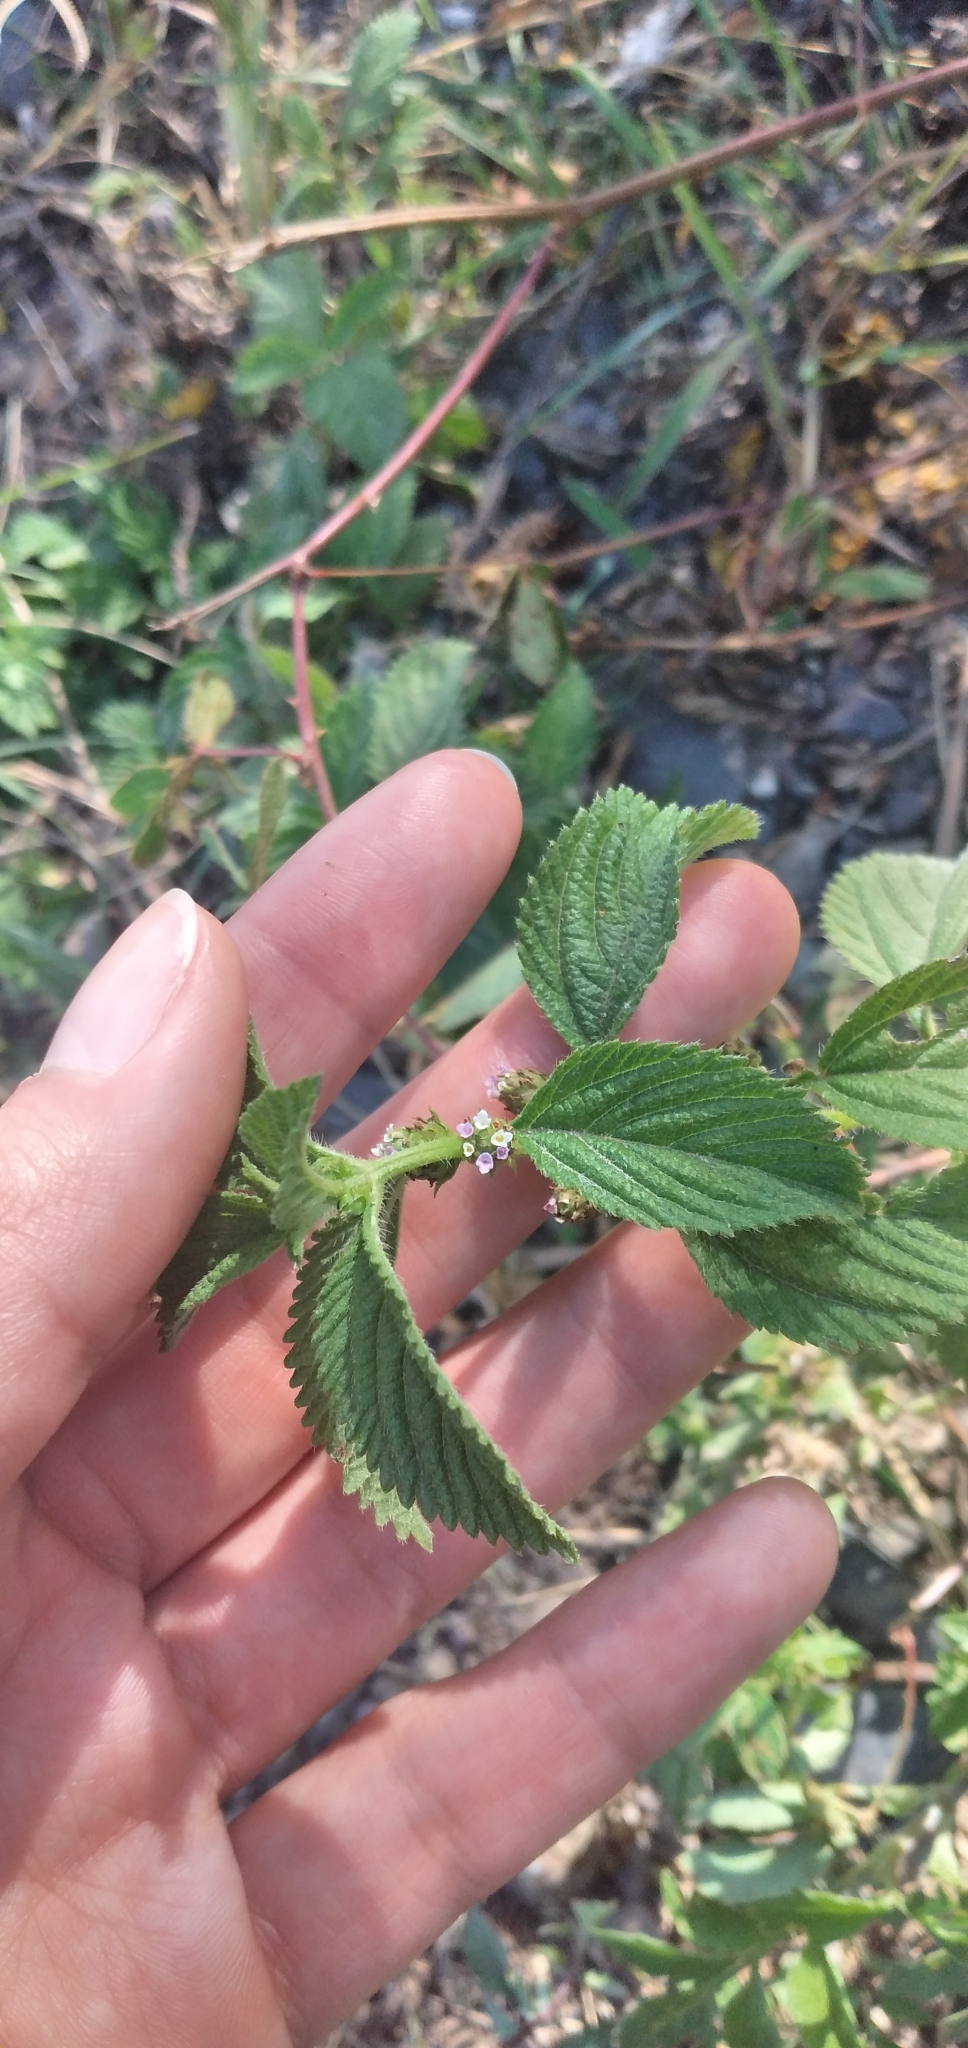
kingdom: Plantae
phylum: Tracheophyta
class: Magnoliopsida
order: Lamiales
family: Verbenaceae
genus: Lippia
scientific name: Lippia suffruticosa
